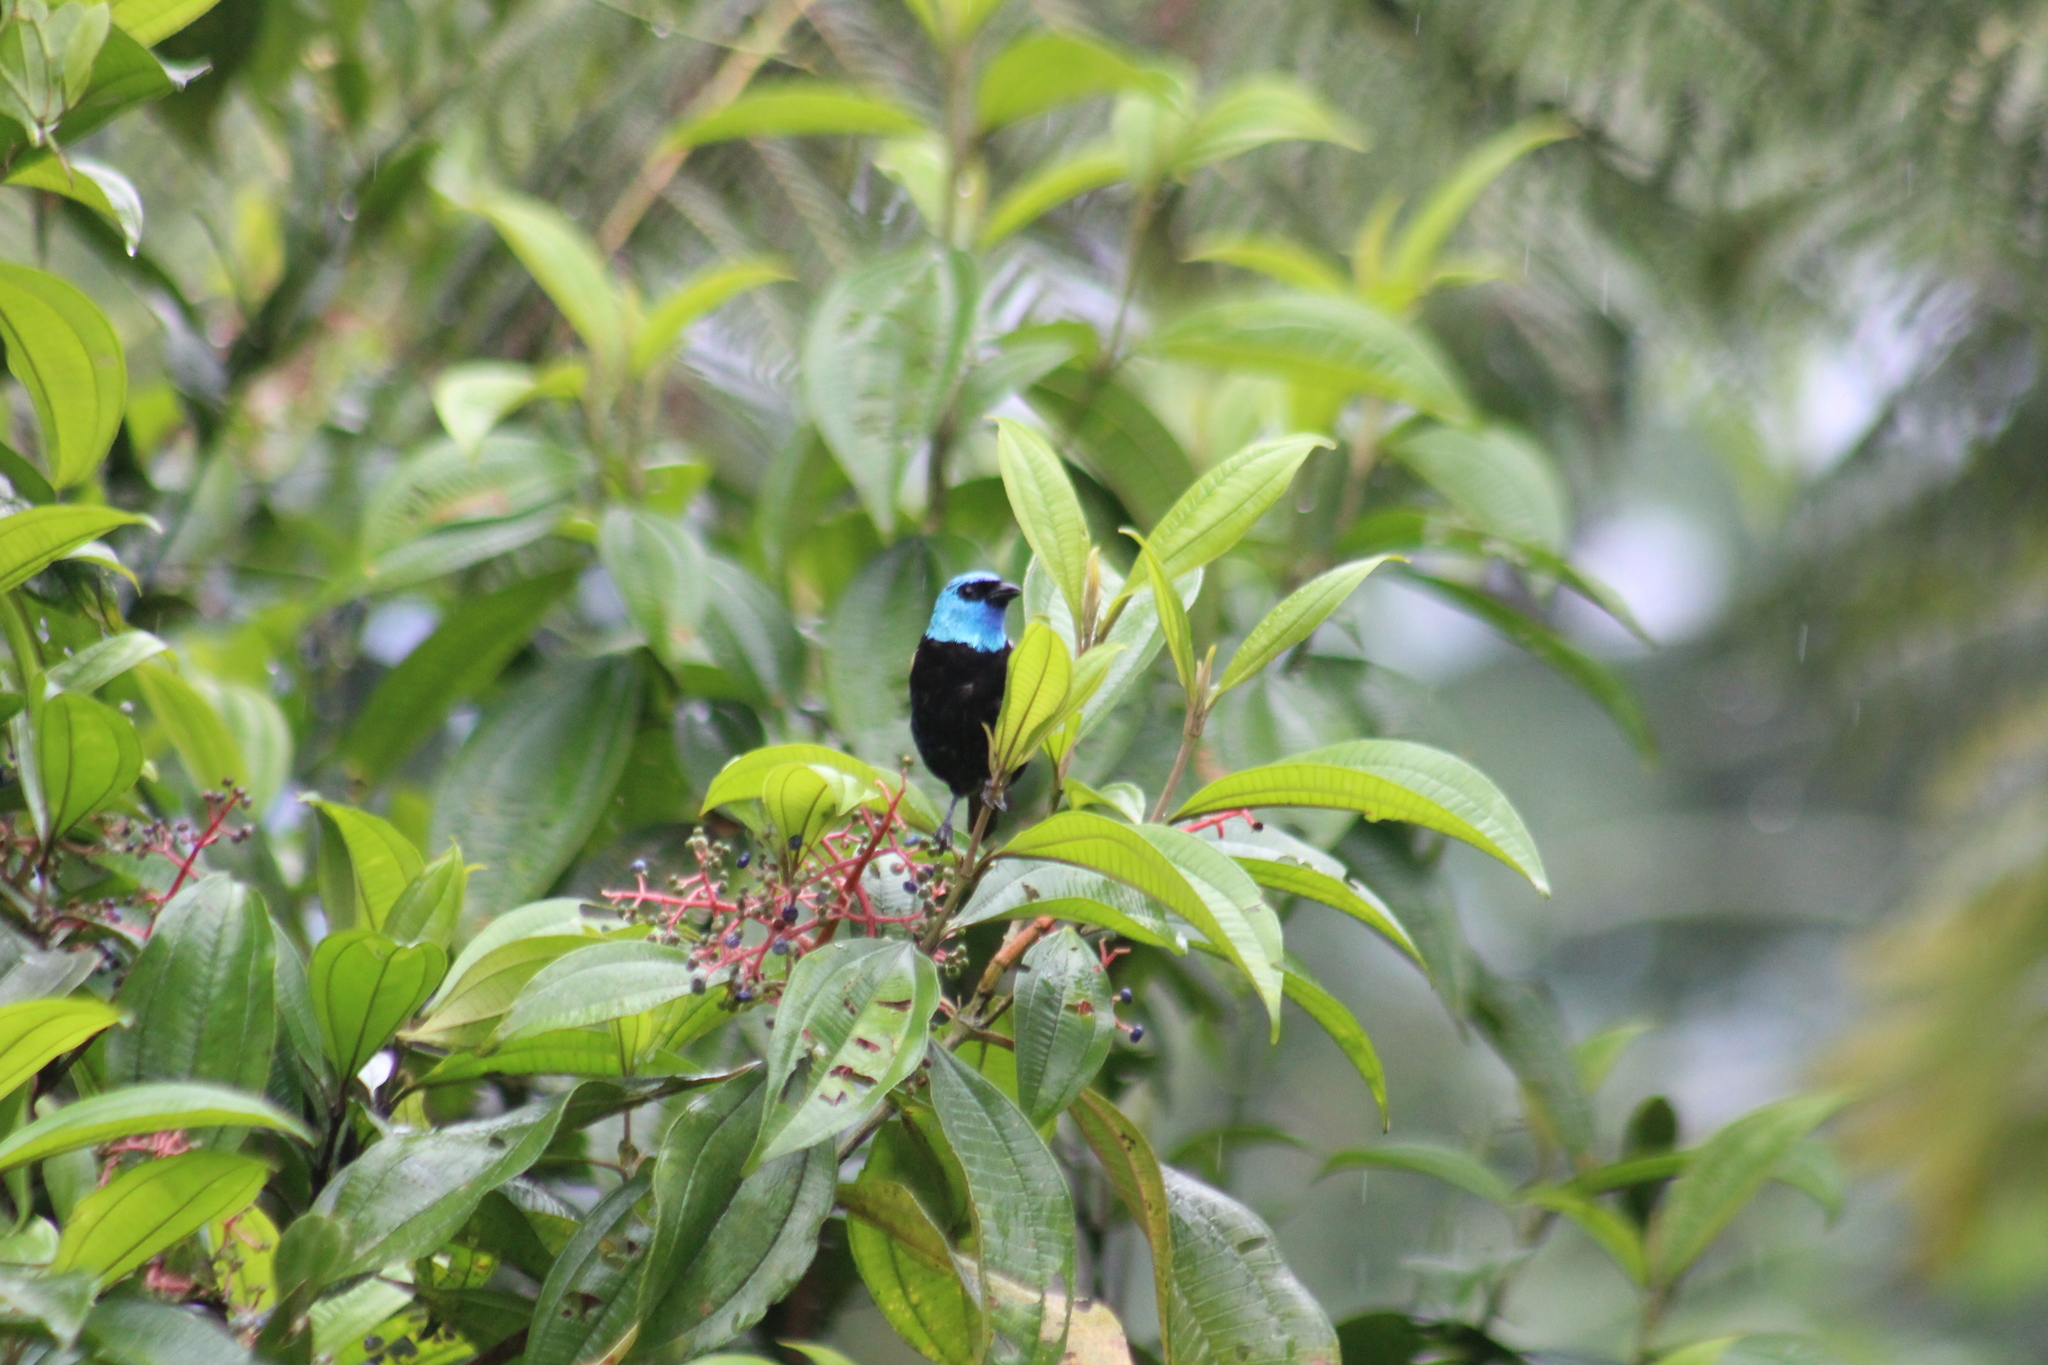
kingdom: Animalia
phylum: Chordata
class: Aves
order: Passeriformes
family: Thraupidae
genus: Stilpnia
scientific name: Stilpnia cyanicollis
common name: Blue-necked tanager
